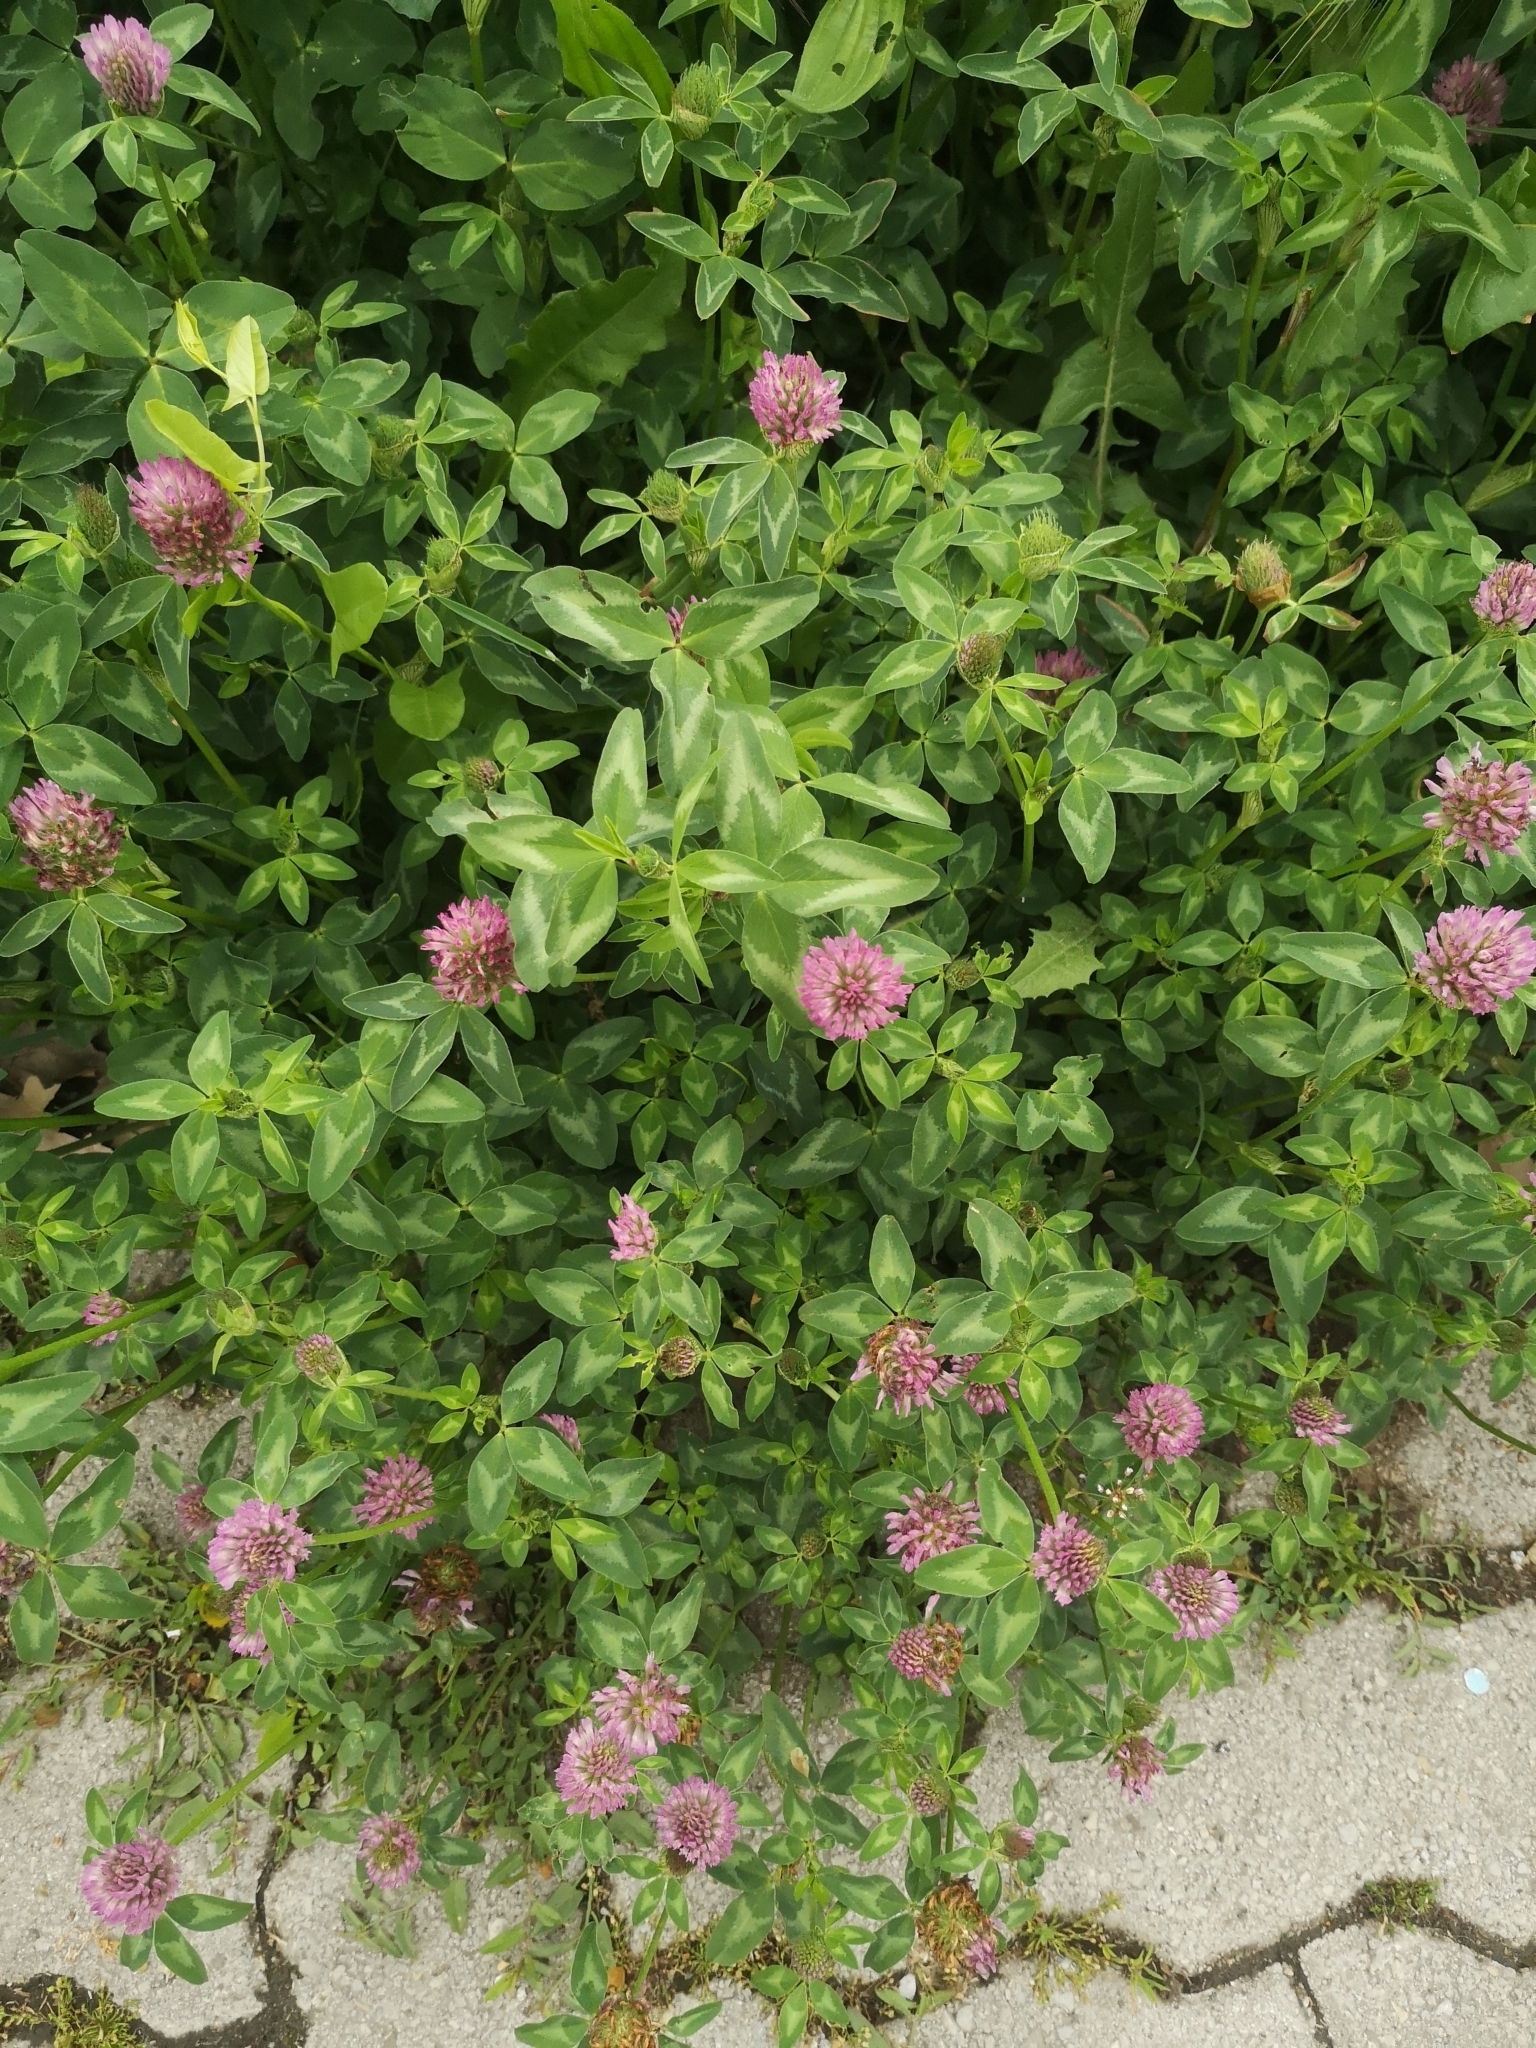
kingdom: Plantae
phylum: Tracheophyta
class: Magnoliopsida
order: Fabales
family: Fabaceae
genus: Trifolium
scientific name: Trifolium pratense
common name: Red clover
